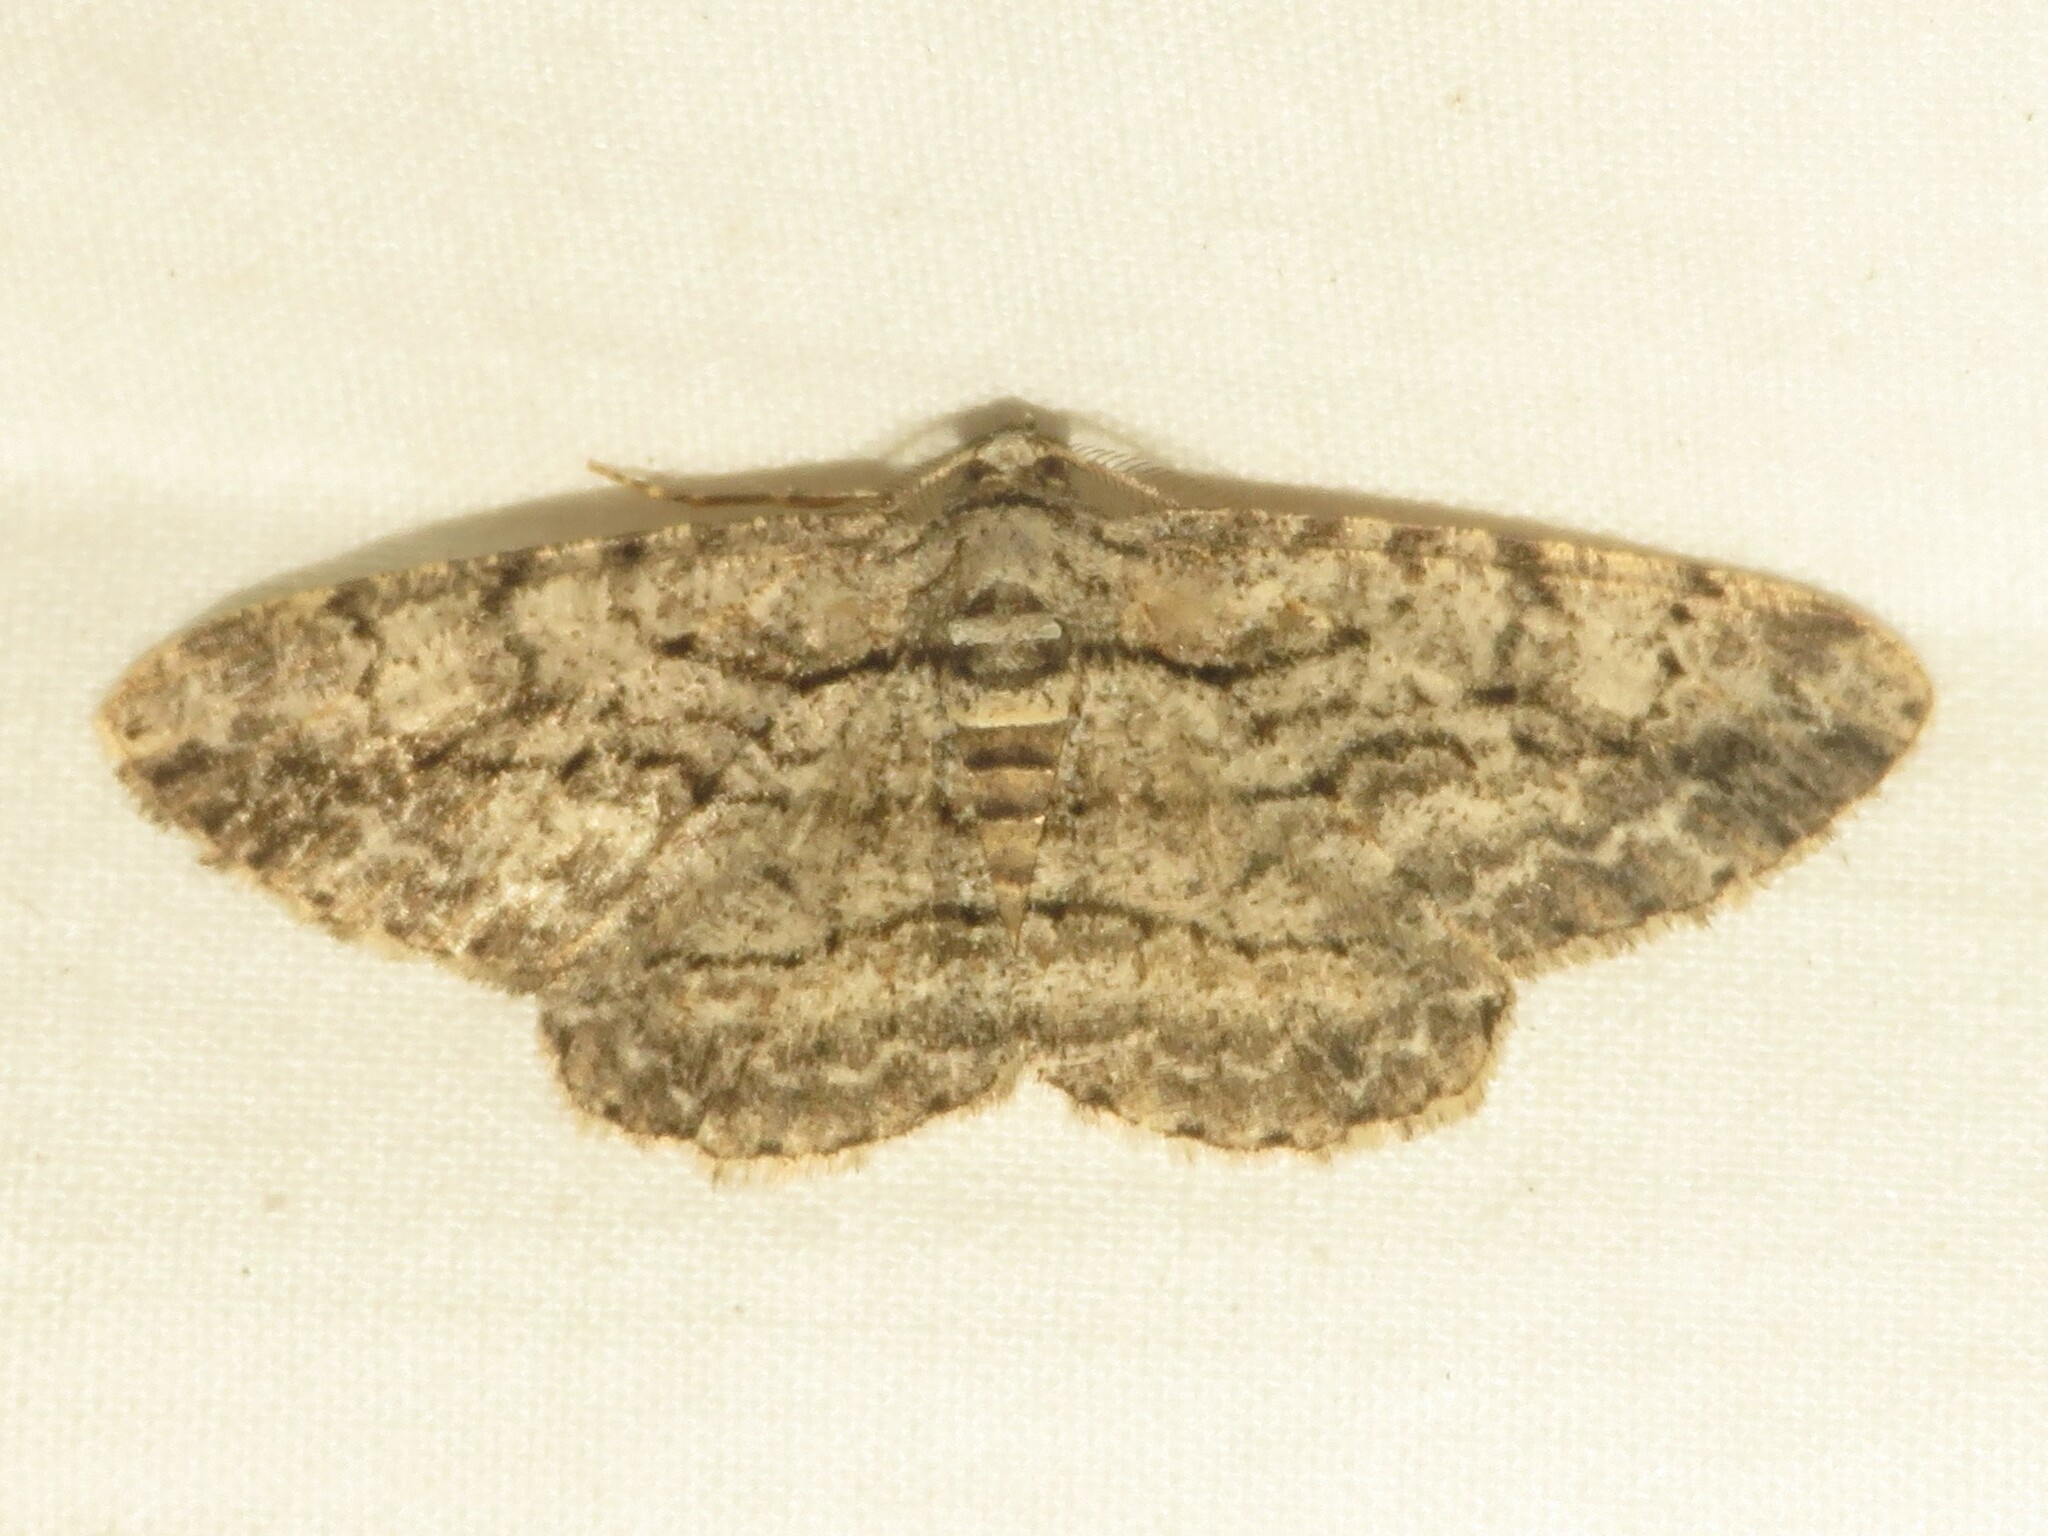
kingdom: Animalia
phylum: Arthropoda
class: Insecta
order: Lepidoptera
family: Geometridae
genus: Anavitrinella
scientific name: Anavitrinella pampinaria
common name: Common gray
